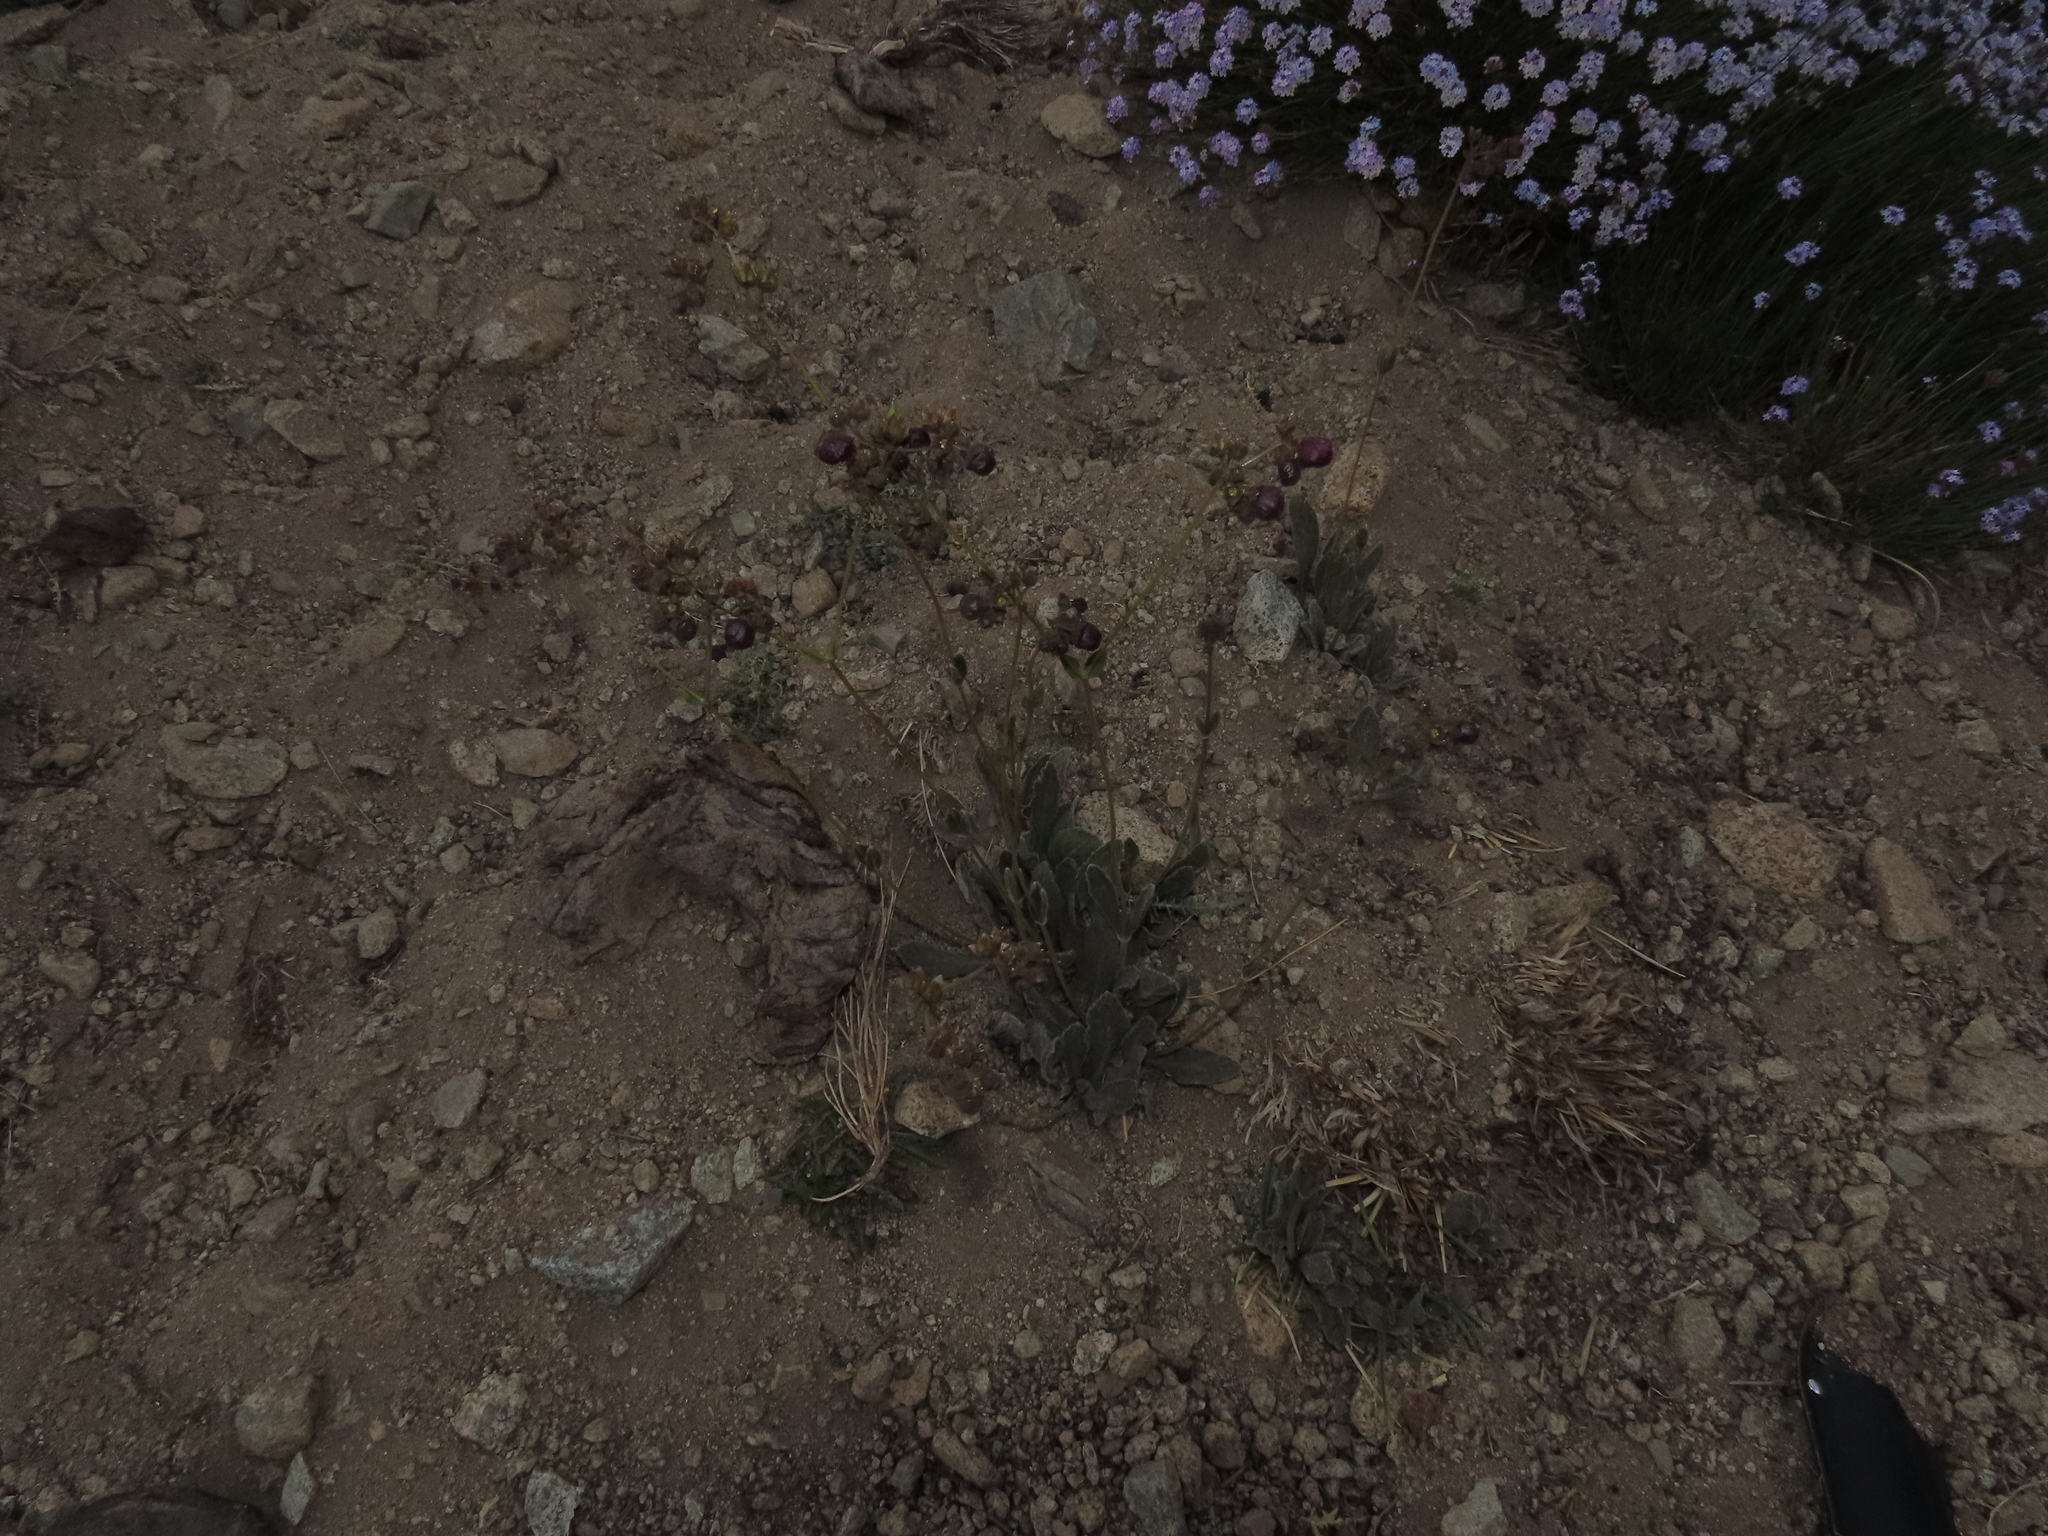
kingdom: Plantae
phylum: Tracheophyta
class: Magnoliopsida
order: Lamiales
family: Calceolariaceae
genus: Calceolaria
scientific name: Calceolaria arachnoidea
